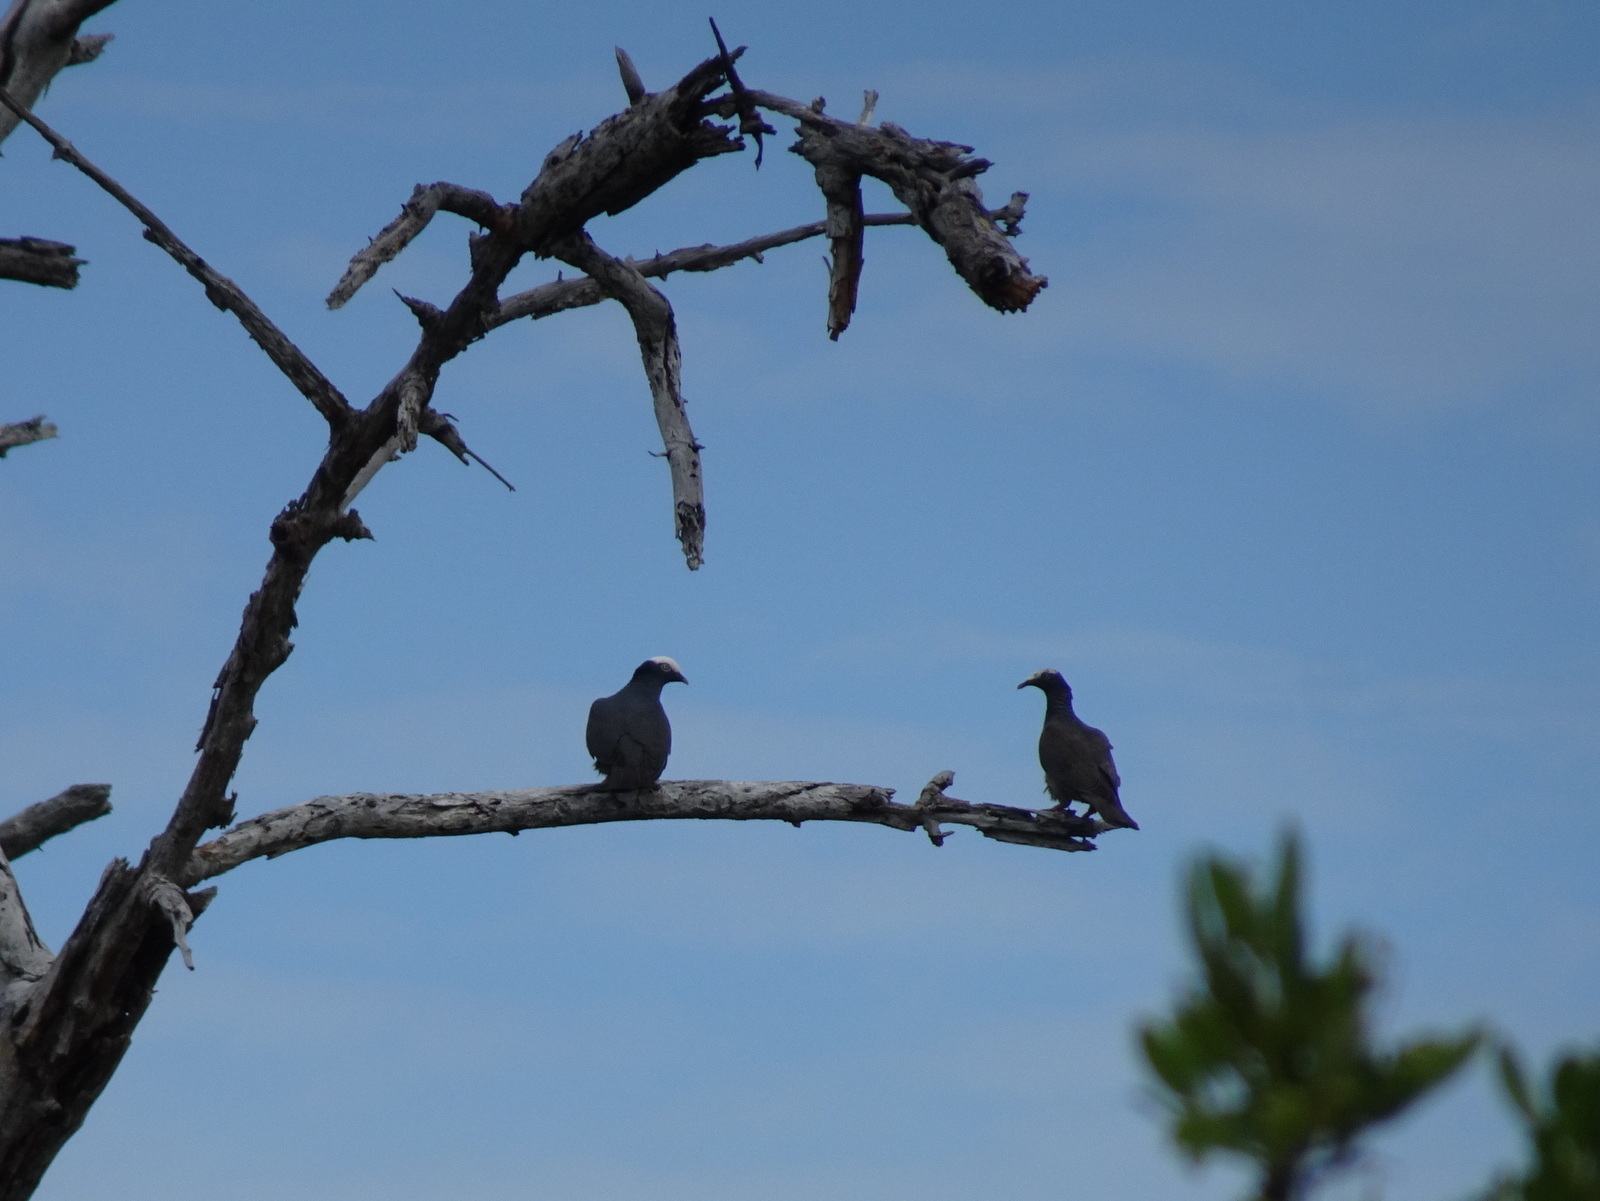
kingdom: Animalia
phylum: Chordata
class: Aves
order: Columbiformes
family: Columbidae
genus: Patagioenas
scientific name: Patagioenas leucocephala
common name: White-crowned pigeon
